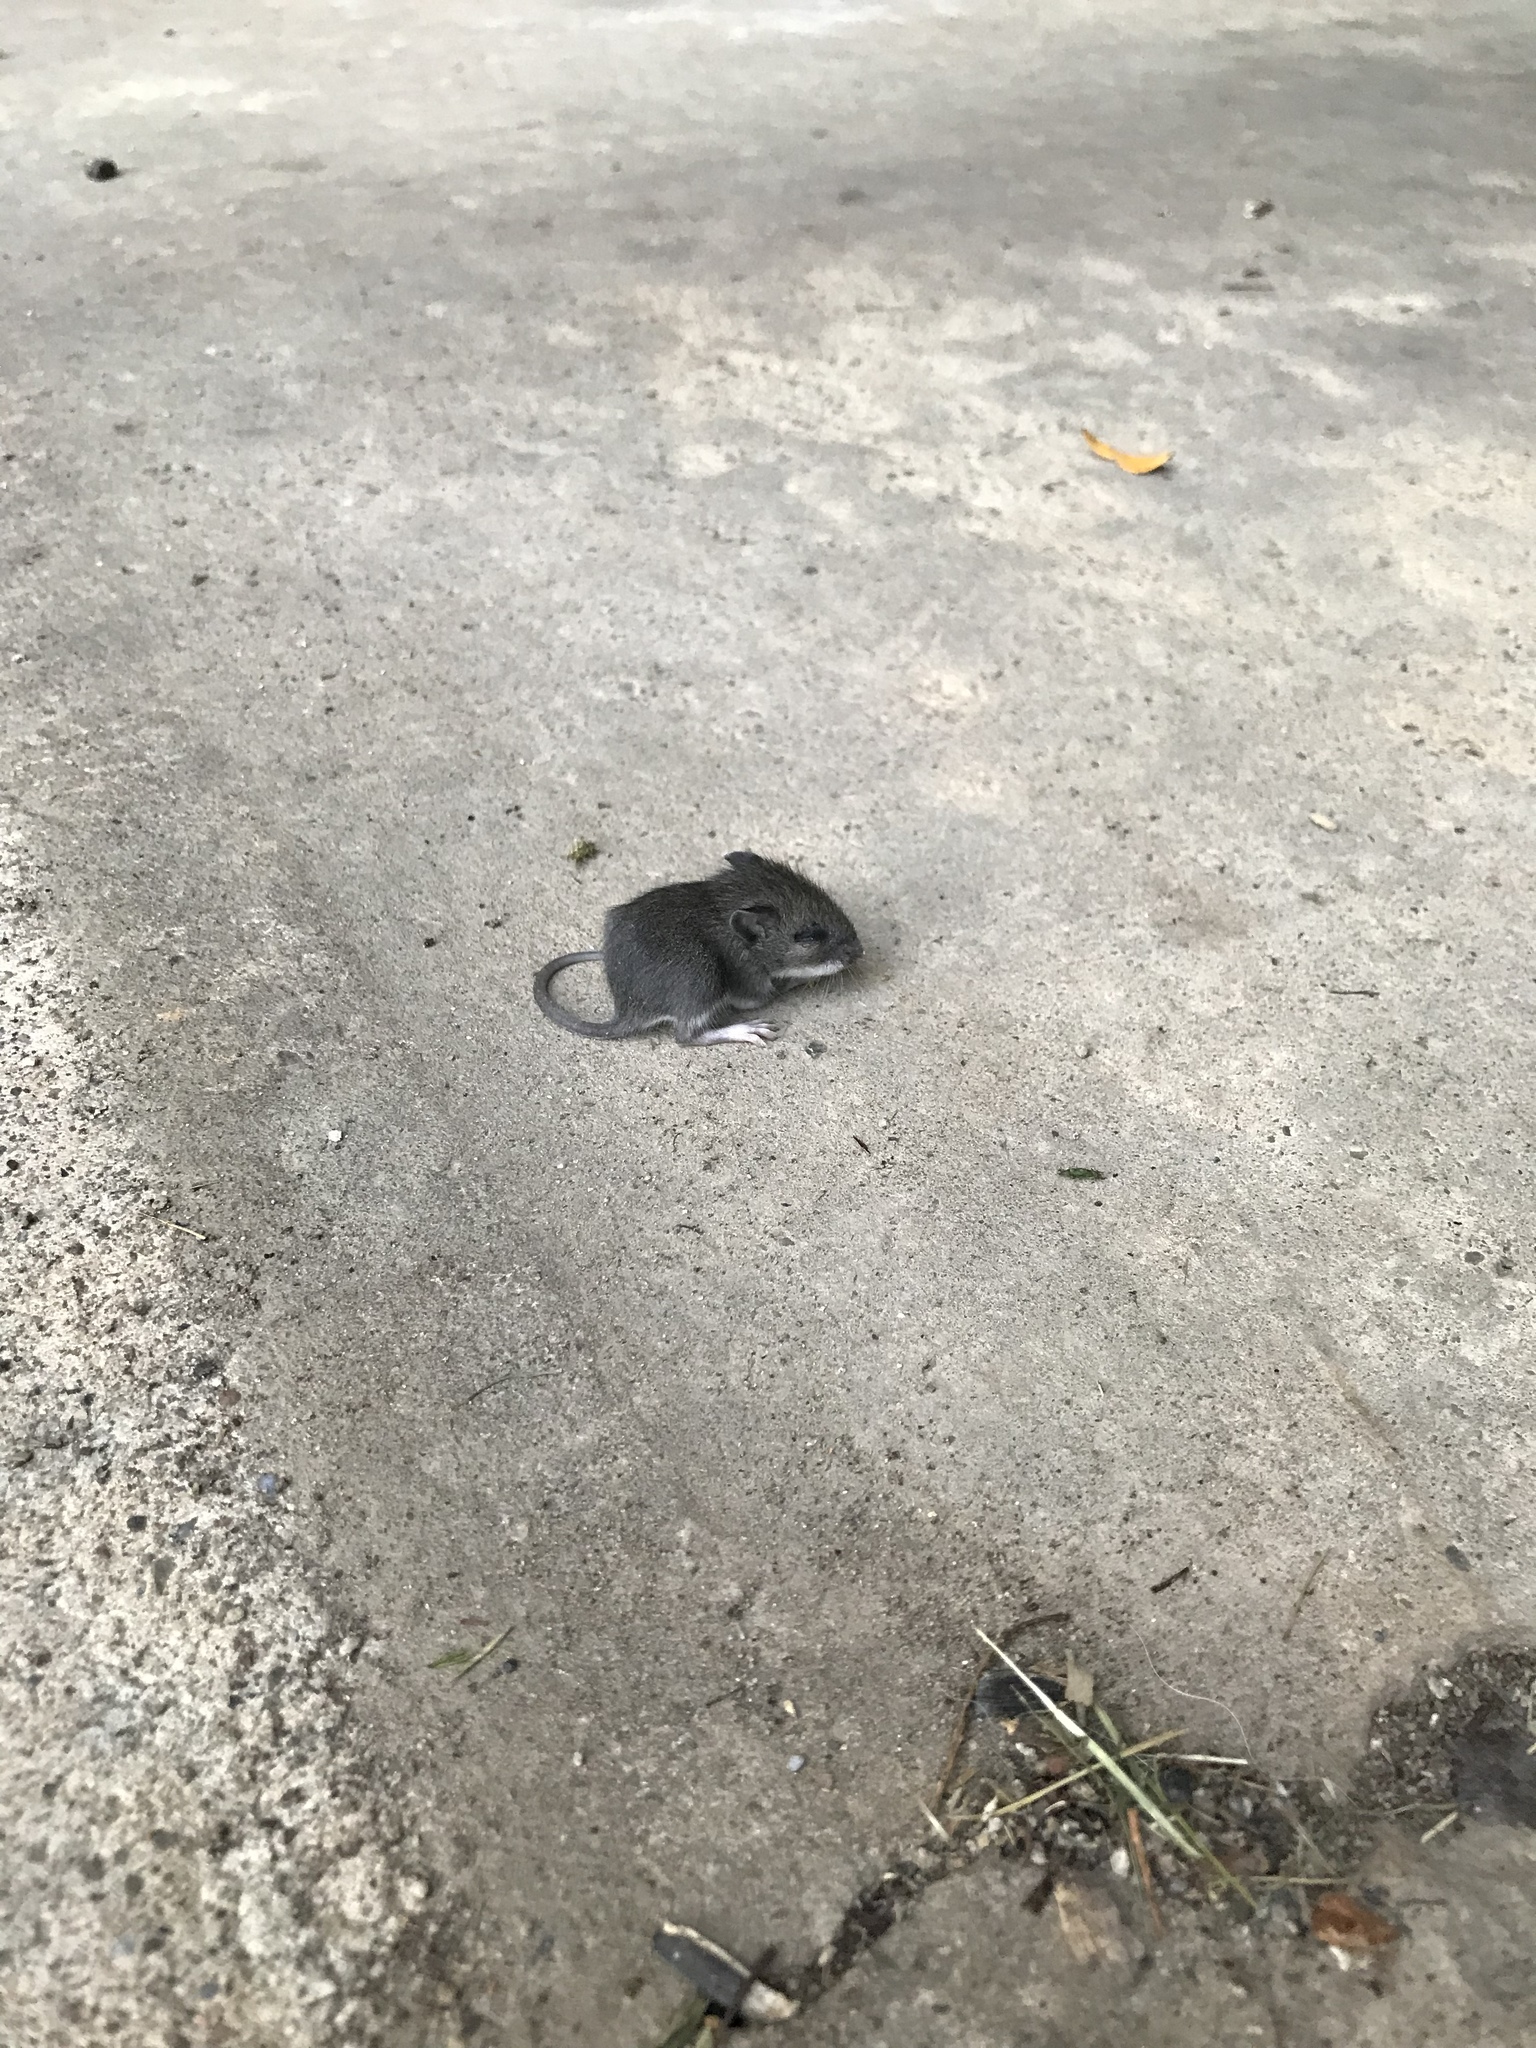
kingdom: Animalia
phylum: Chordata
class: Mammalia
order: Rodentia
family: Cricetidae
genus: Peromyscus
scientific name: Peromyscus leucopus
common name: White-footed deermouse
